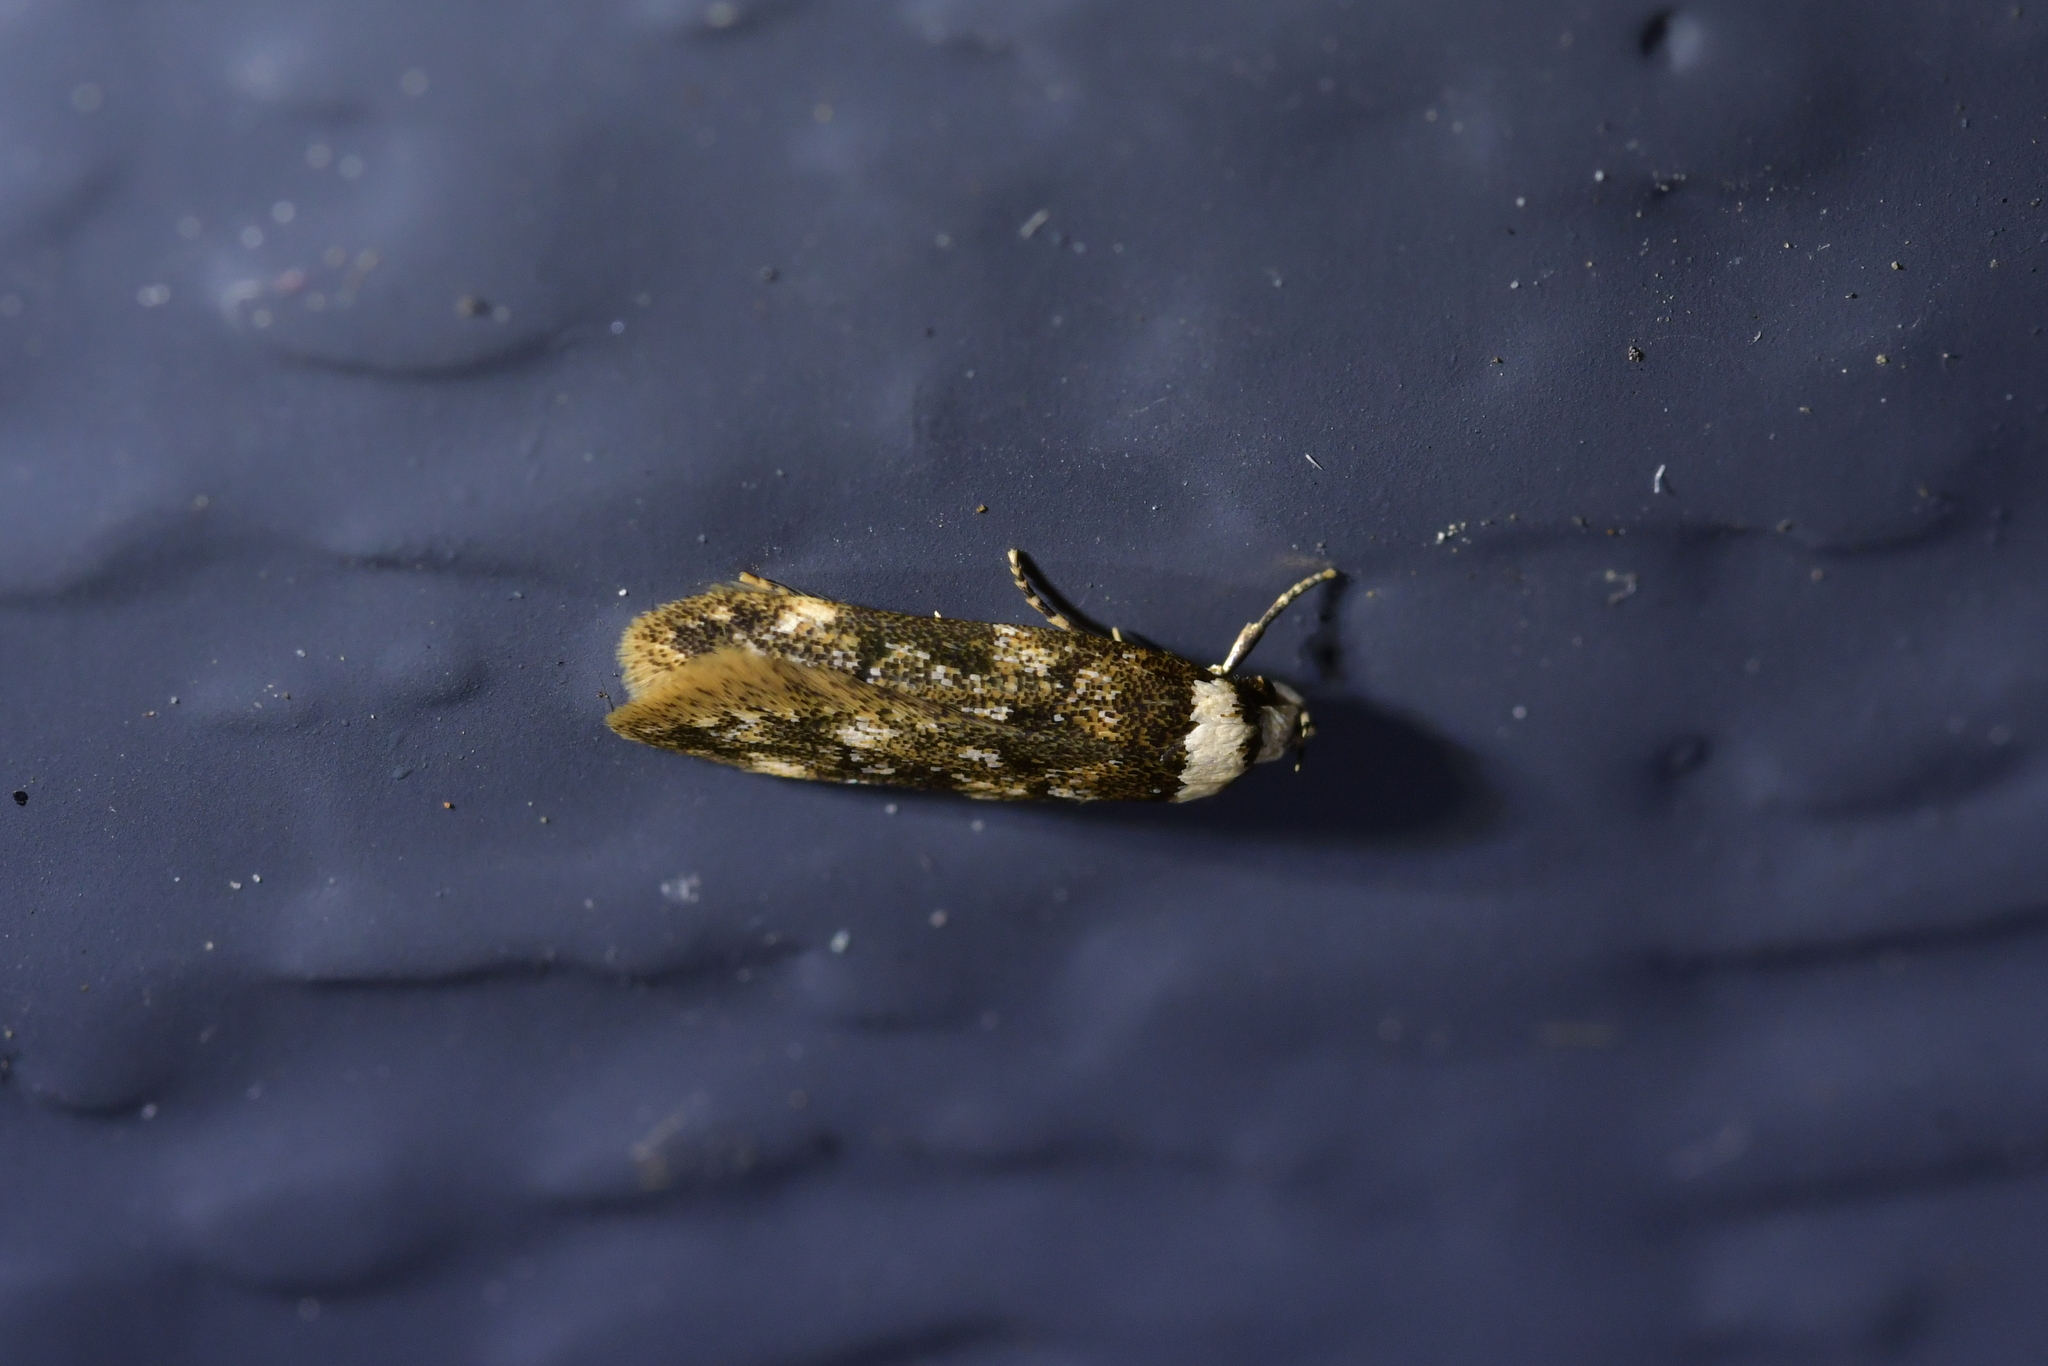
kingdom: Animalia
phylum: Arthropoda
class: Insecta
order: Lepidoptera
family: Oecophoridae
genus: Endrosis
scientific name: Endrosis sarcitrella
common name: White-shouldered house moth
